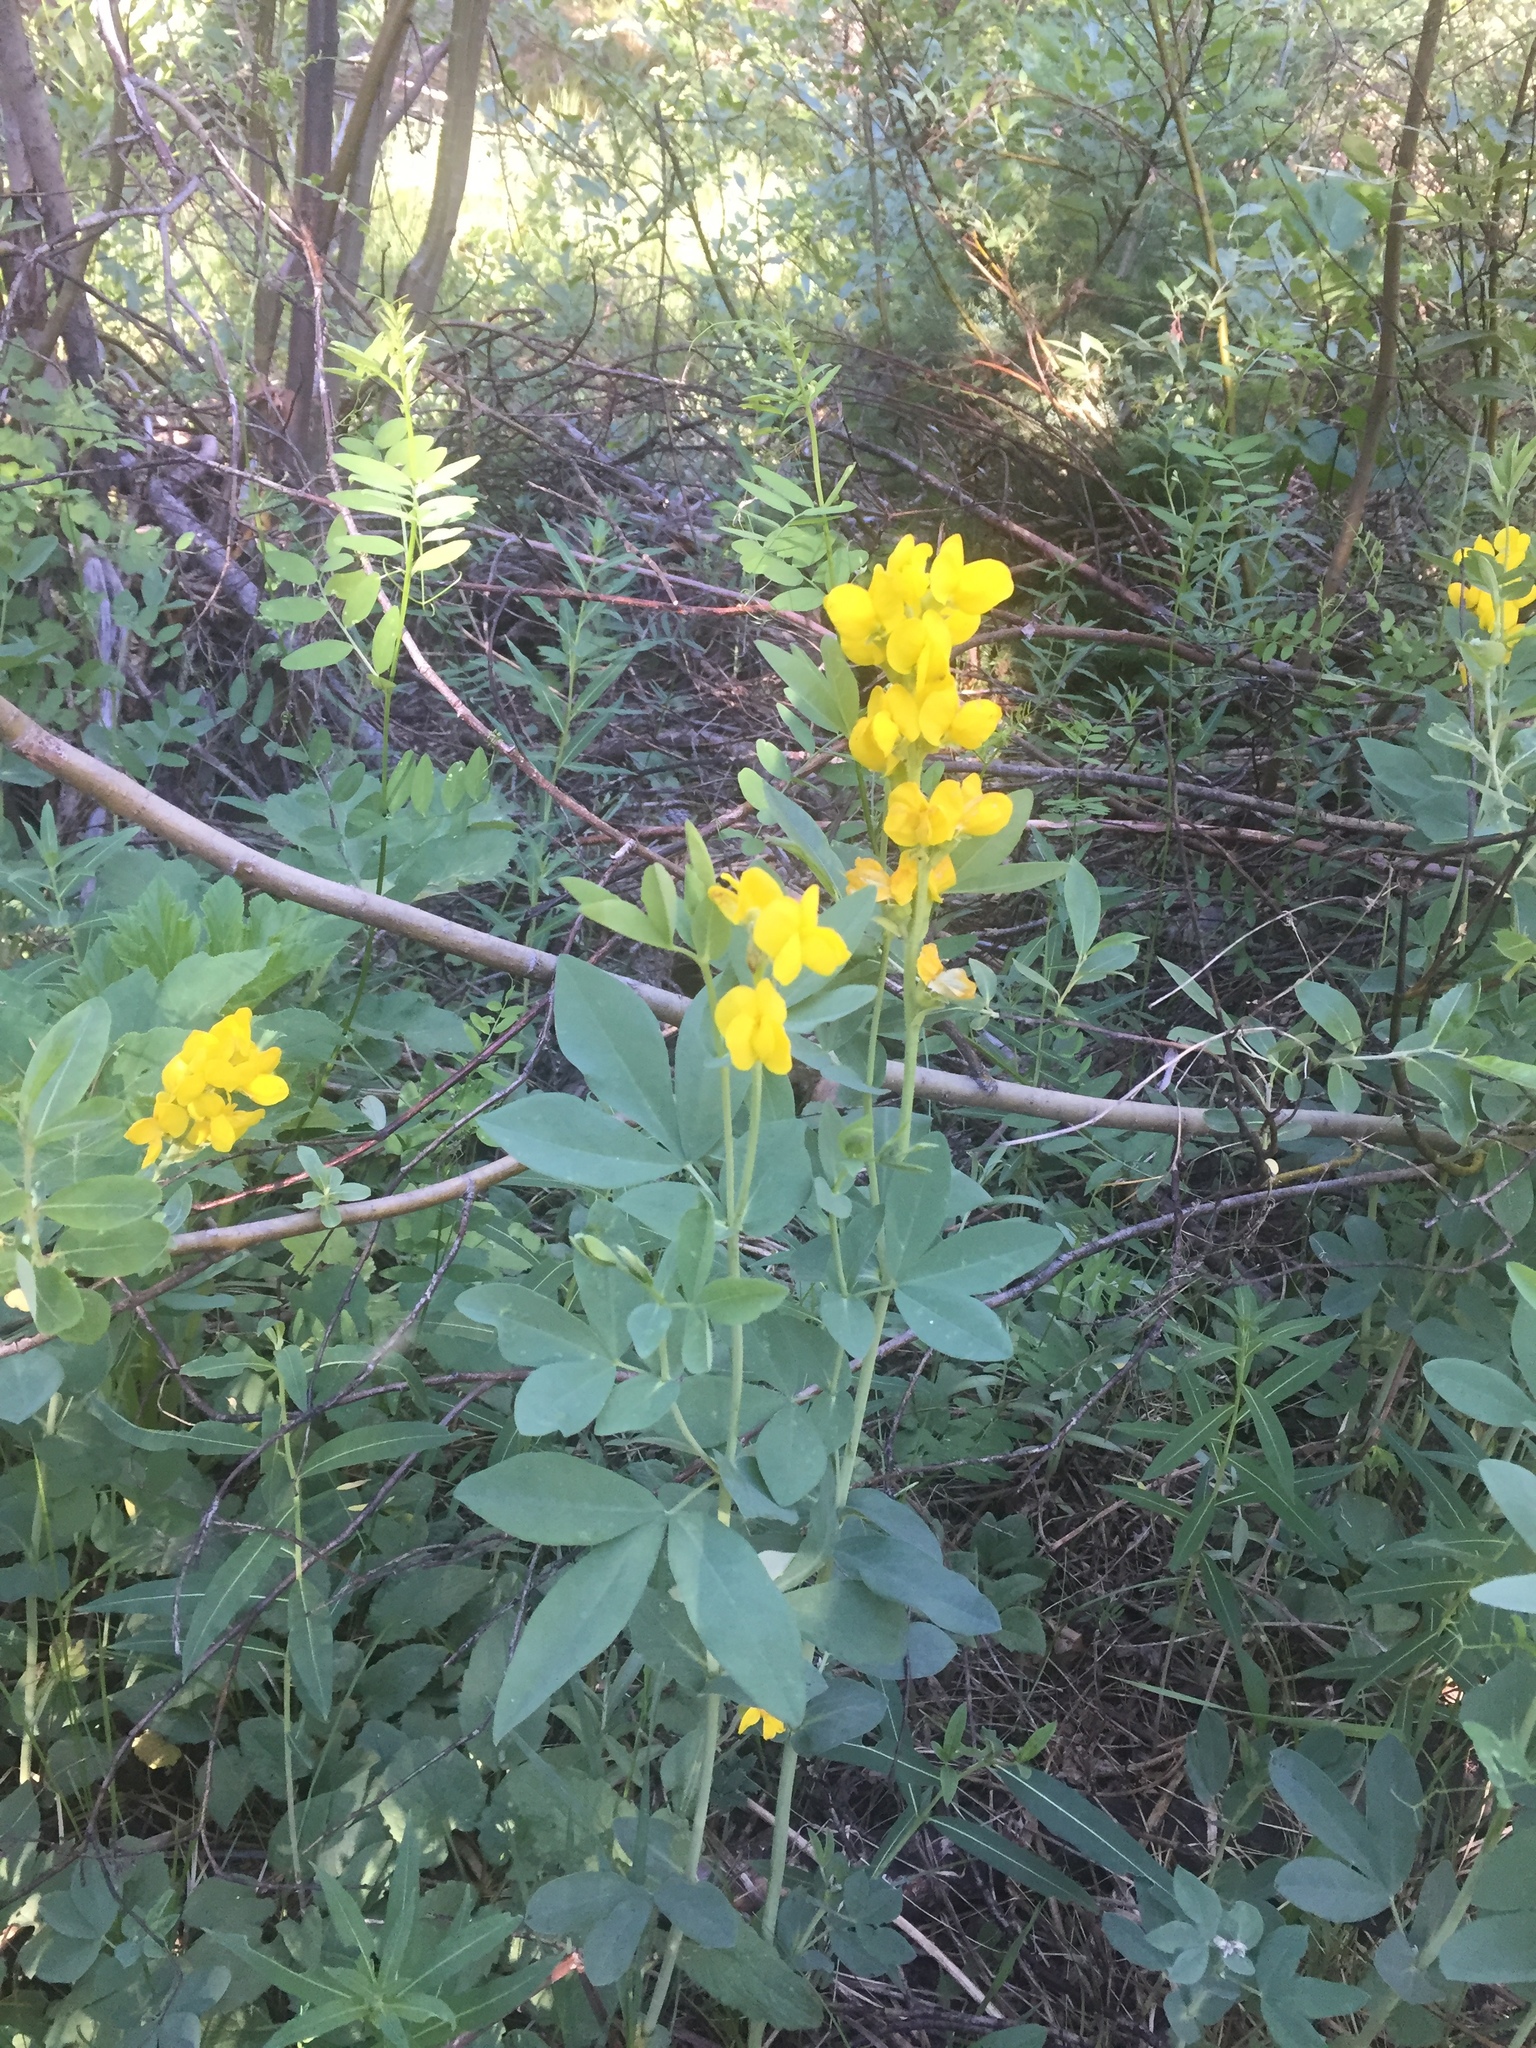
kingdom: Plantae
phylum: Tracheophyta
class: Magnoliopsida
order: Fabales
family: Fabaceae
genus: Thermopsis
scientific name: Thermopsis montana
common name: False lupin
